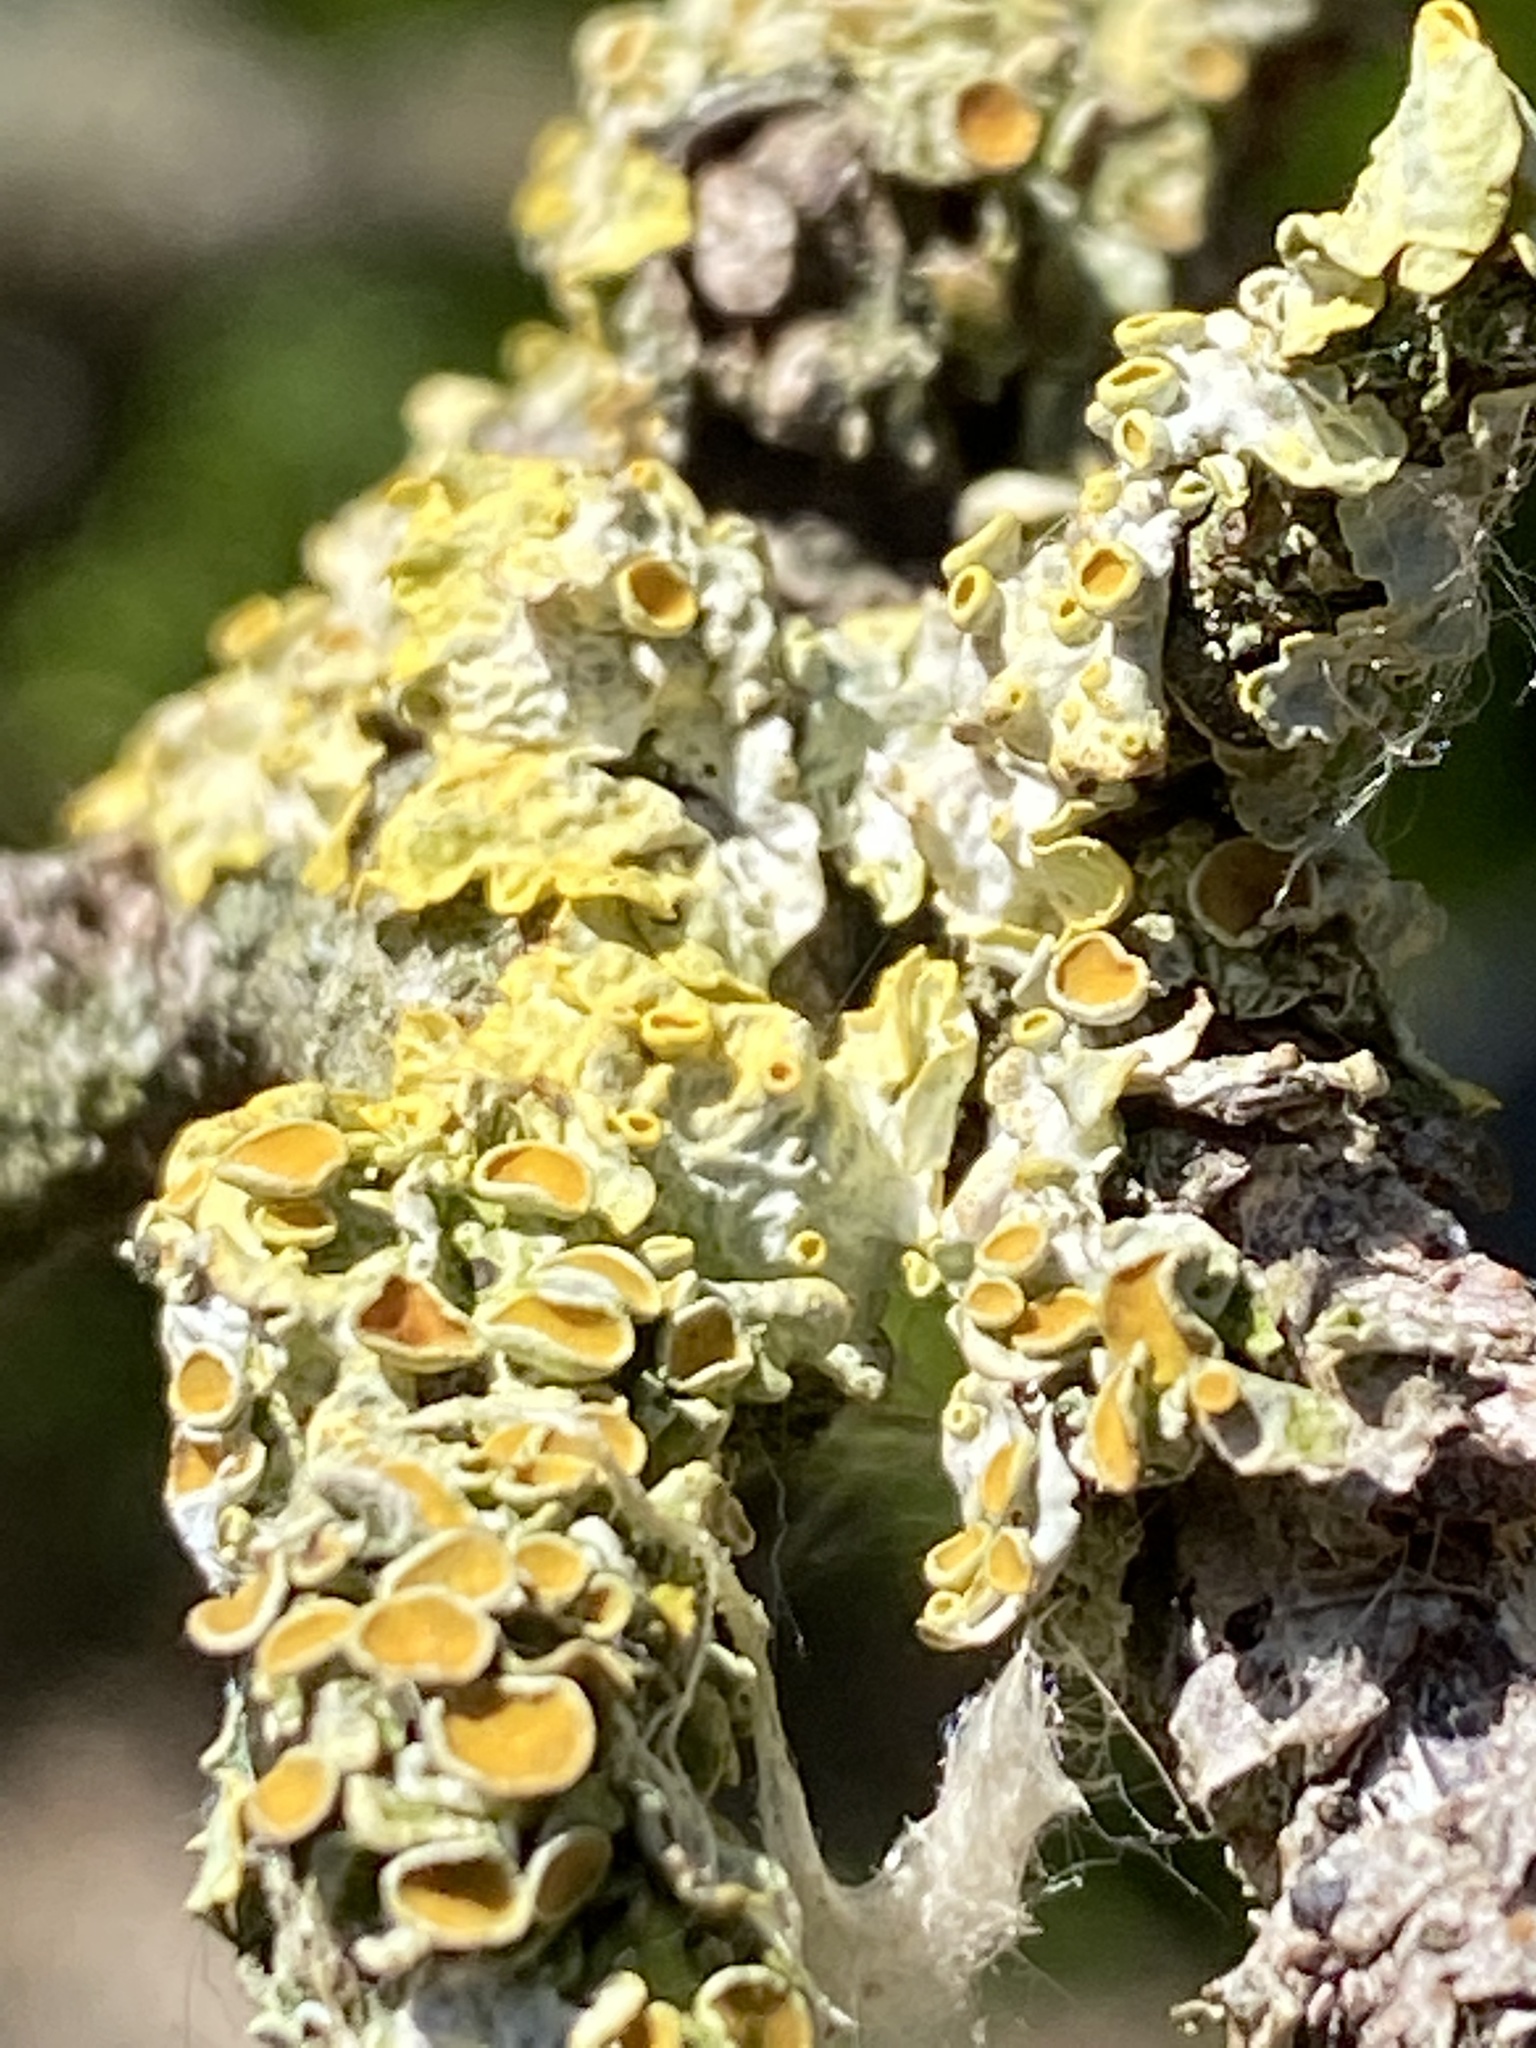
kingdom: Fungi
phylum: Ascomycota
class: Lecanoromycetes
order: Teloschistales
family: Teloschistaceae
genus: Xanthoria
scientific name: Xanthoria parietina
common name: Common orange lichen
